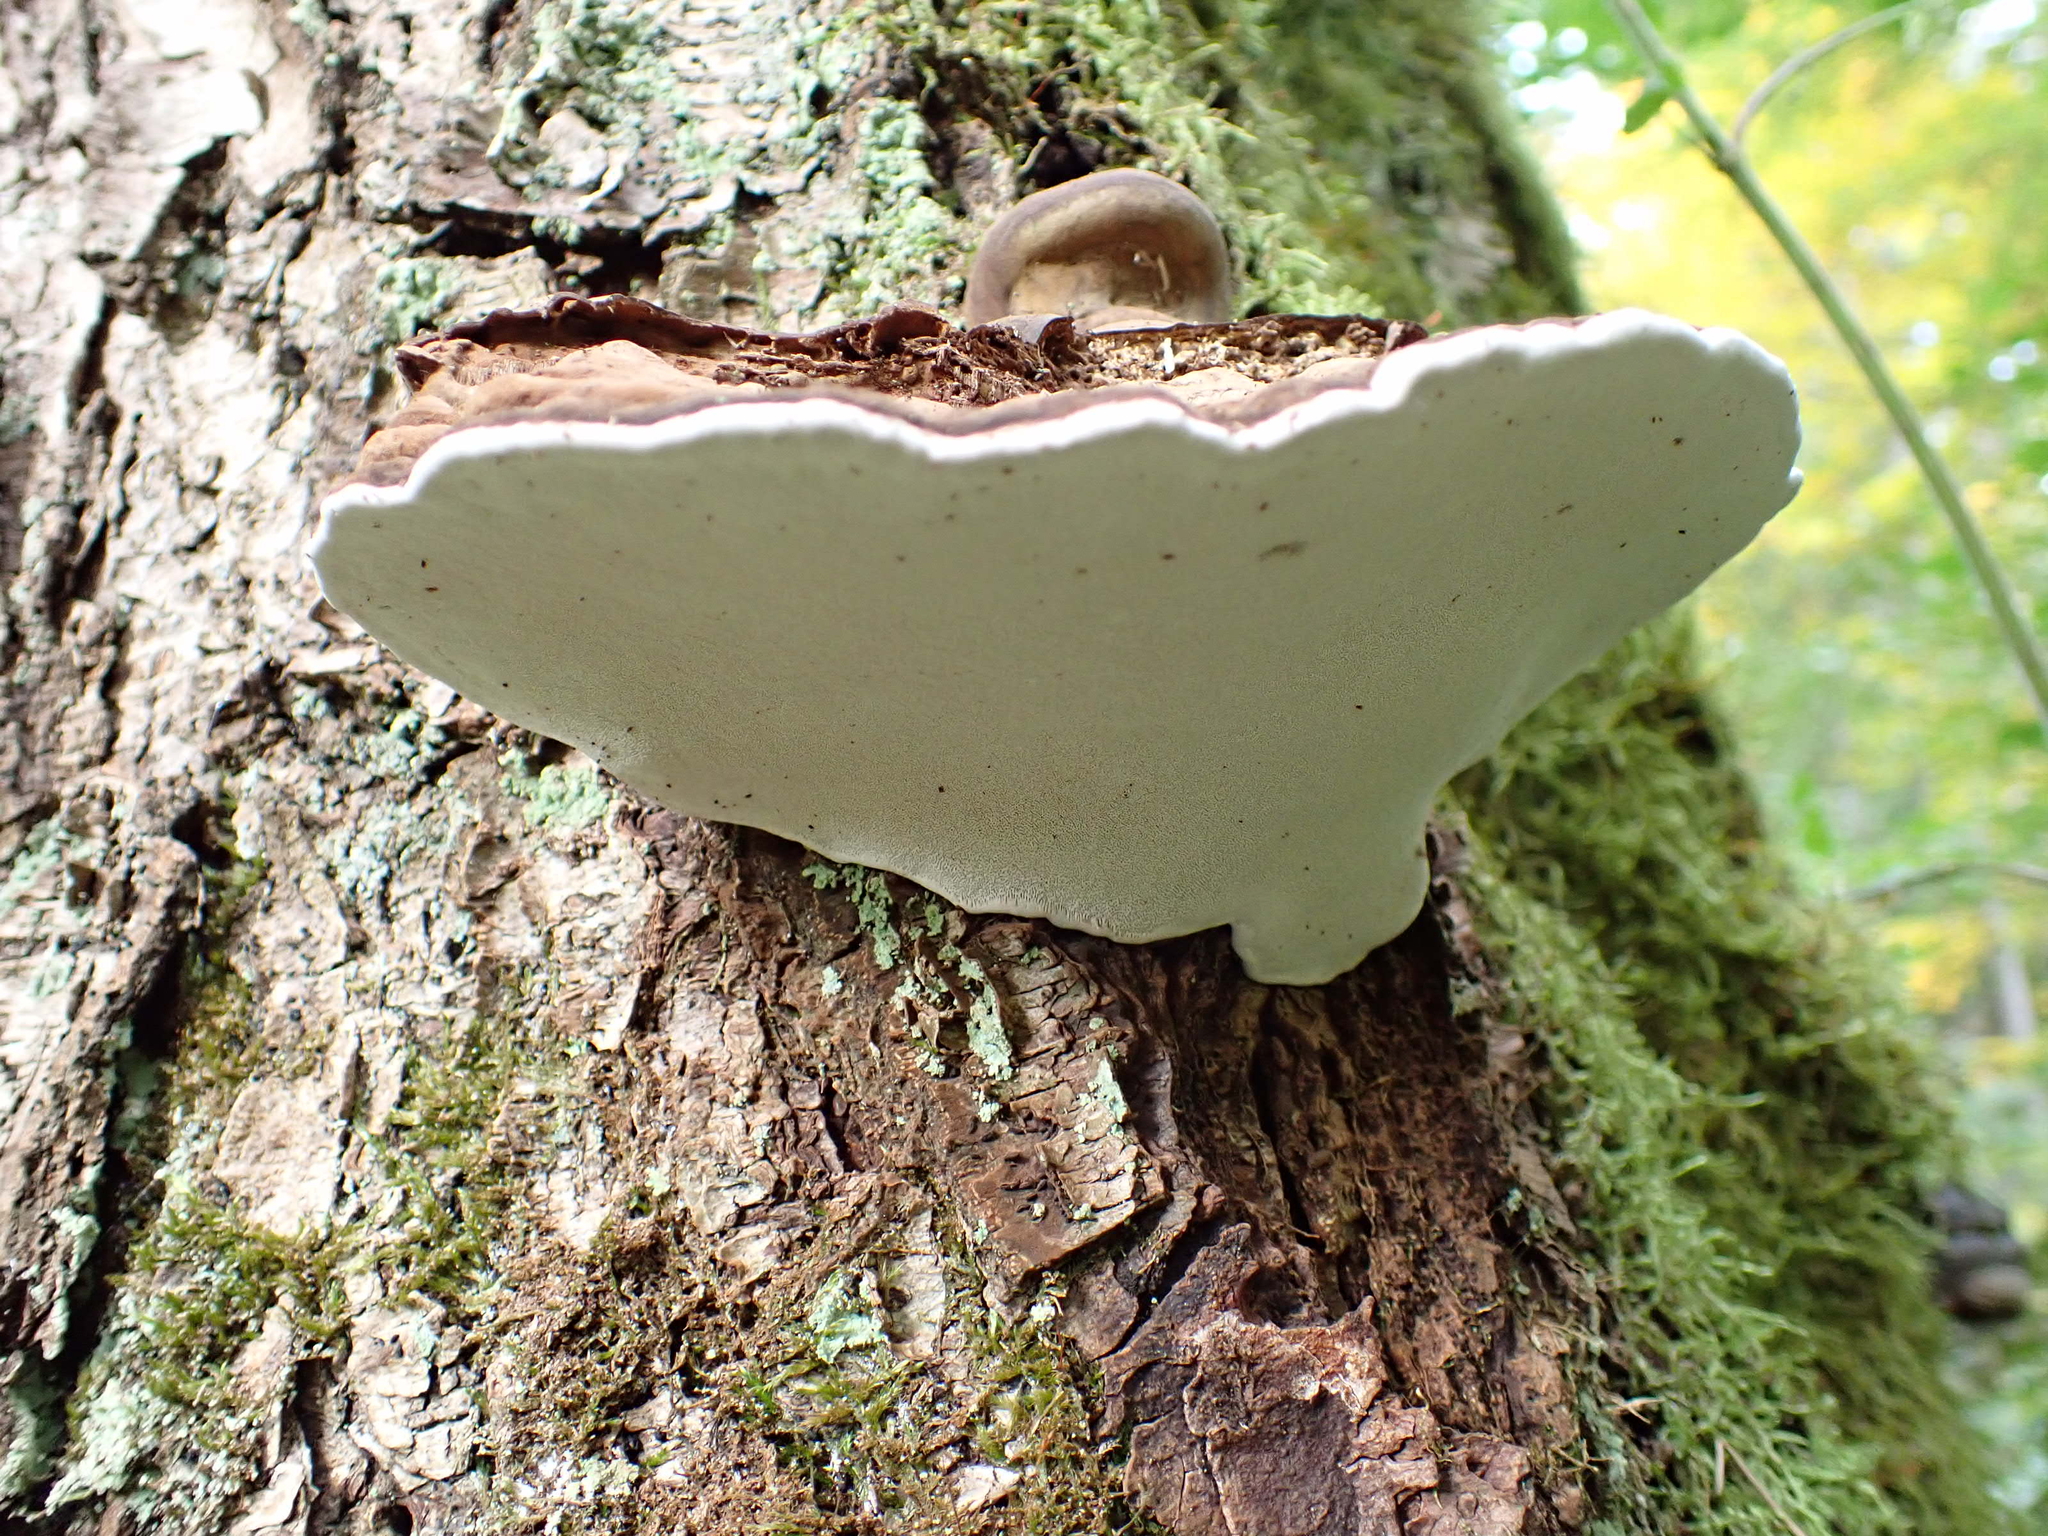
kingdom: Fungi
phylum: Basidiomycota
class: Agaricomycetes
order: Polyporales
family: Polyporaceae
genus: Ganoderma
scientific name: Ganoderma applanatum
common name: Artist's bracket
